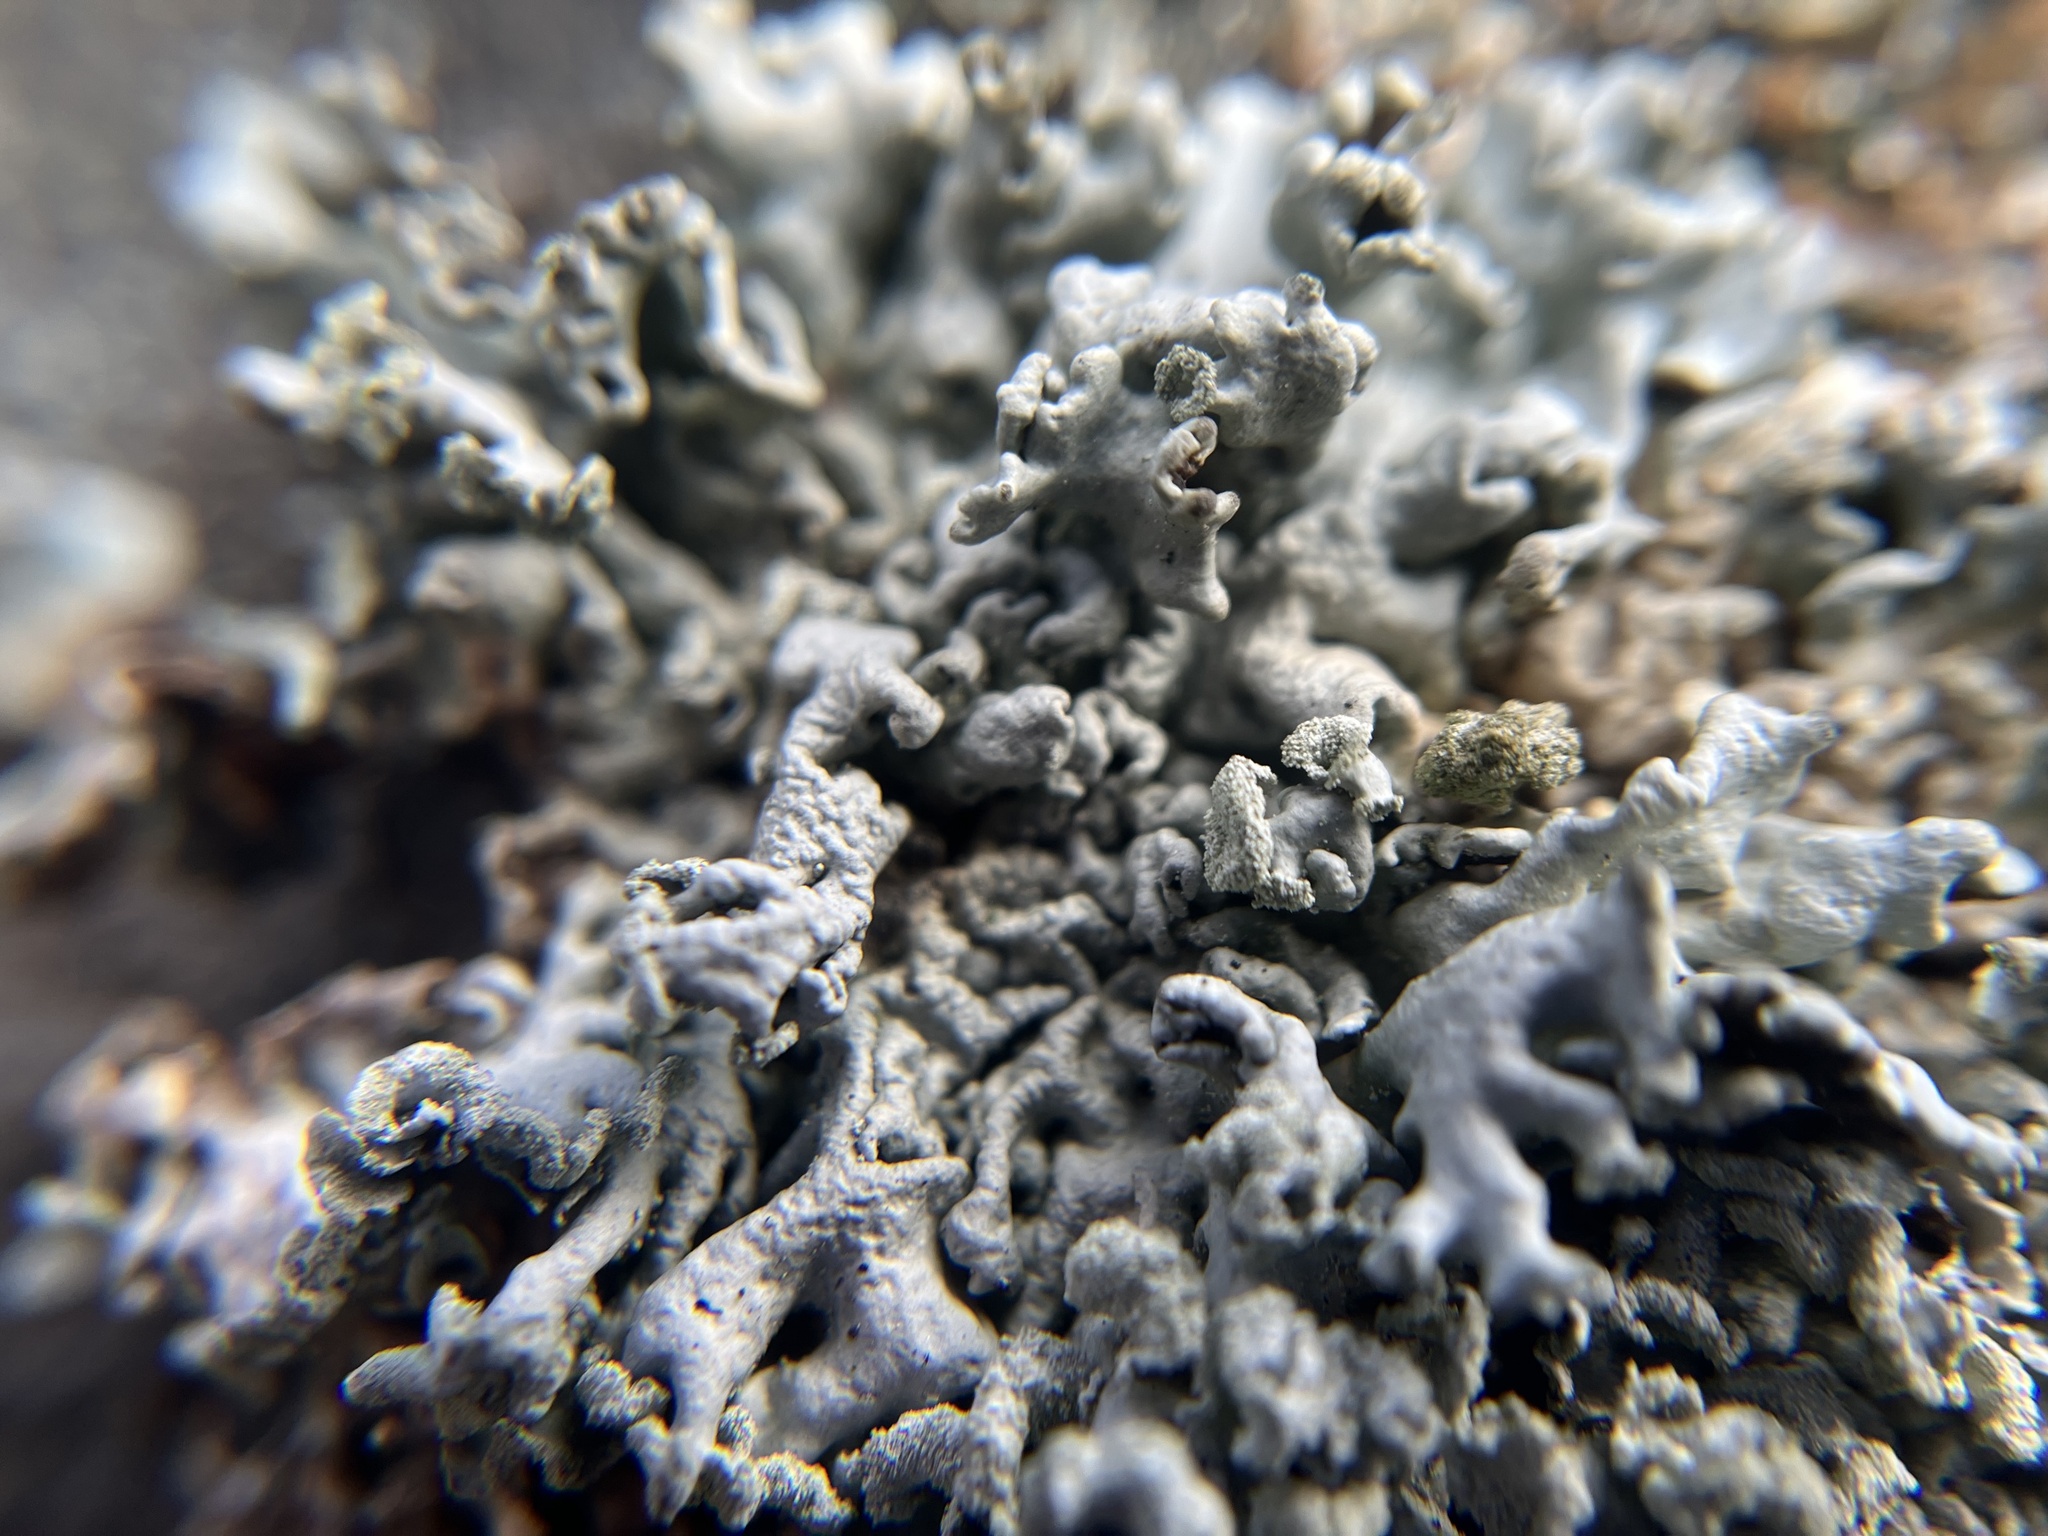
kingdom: Fungi
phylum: Ascomycota
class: Lecanoromycetes
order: Lecanorales
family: Parmeliaceae
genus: Hypogymnia
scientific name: Hypogymnia physodes
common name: Dark crottle
